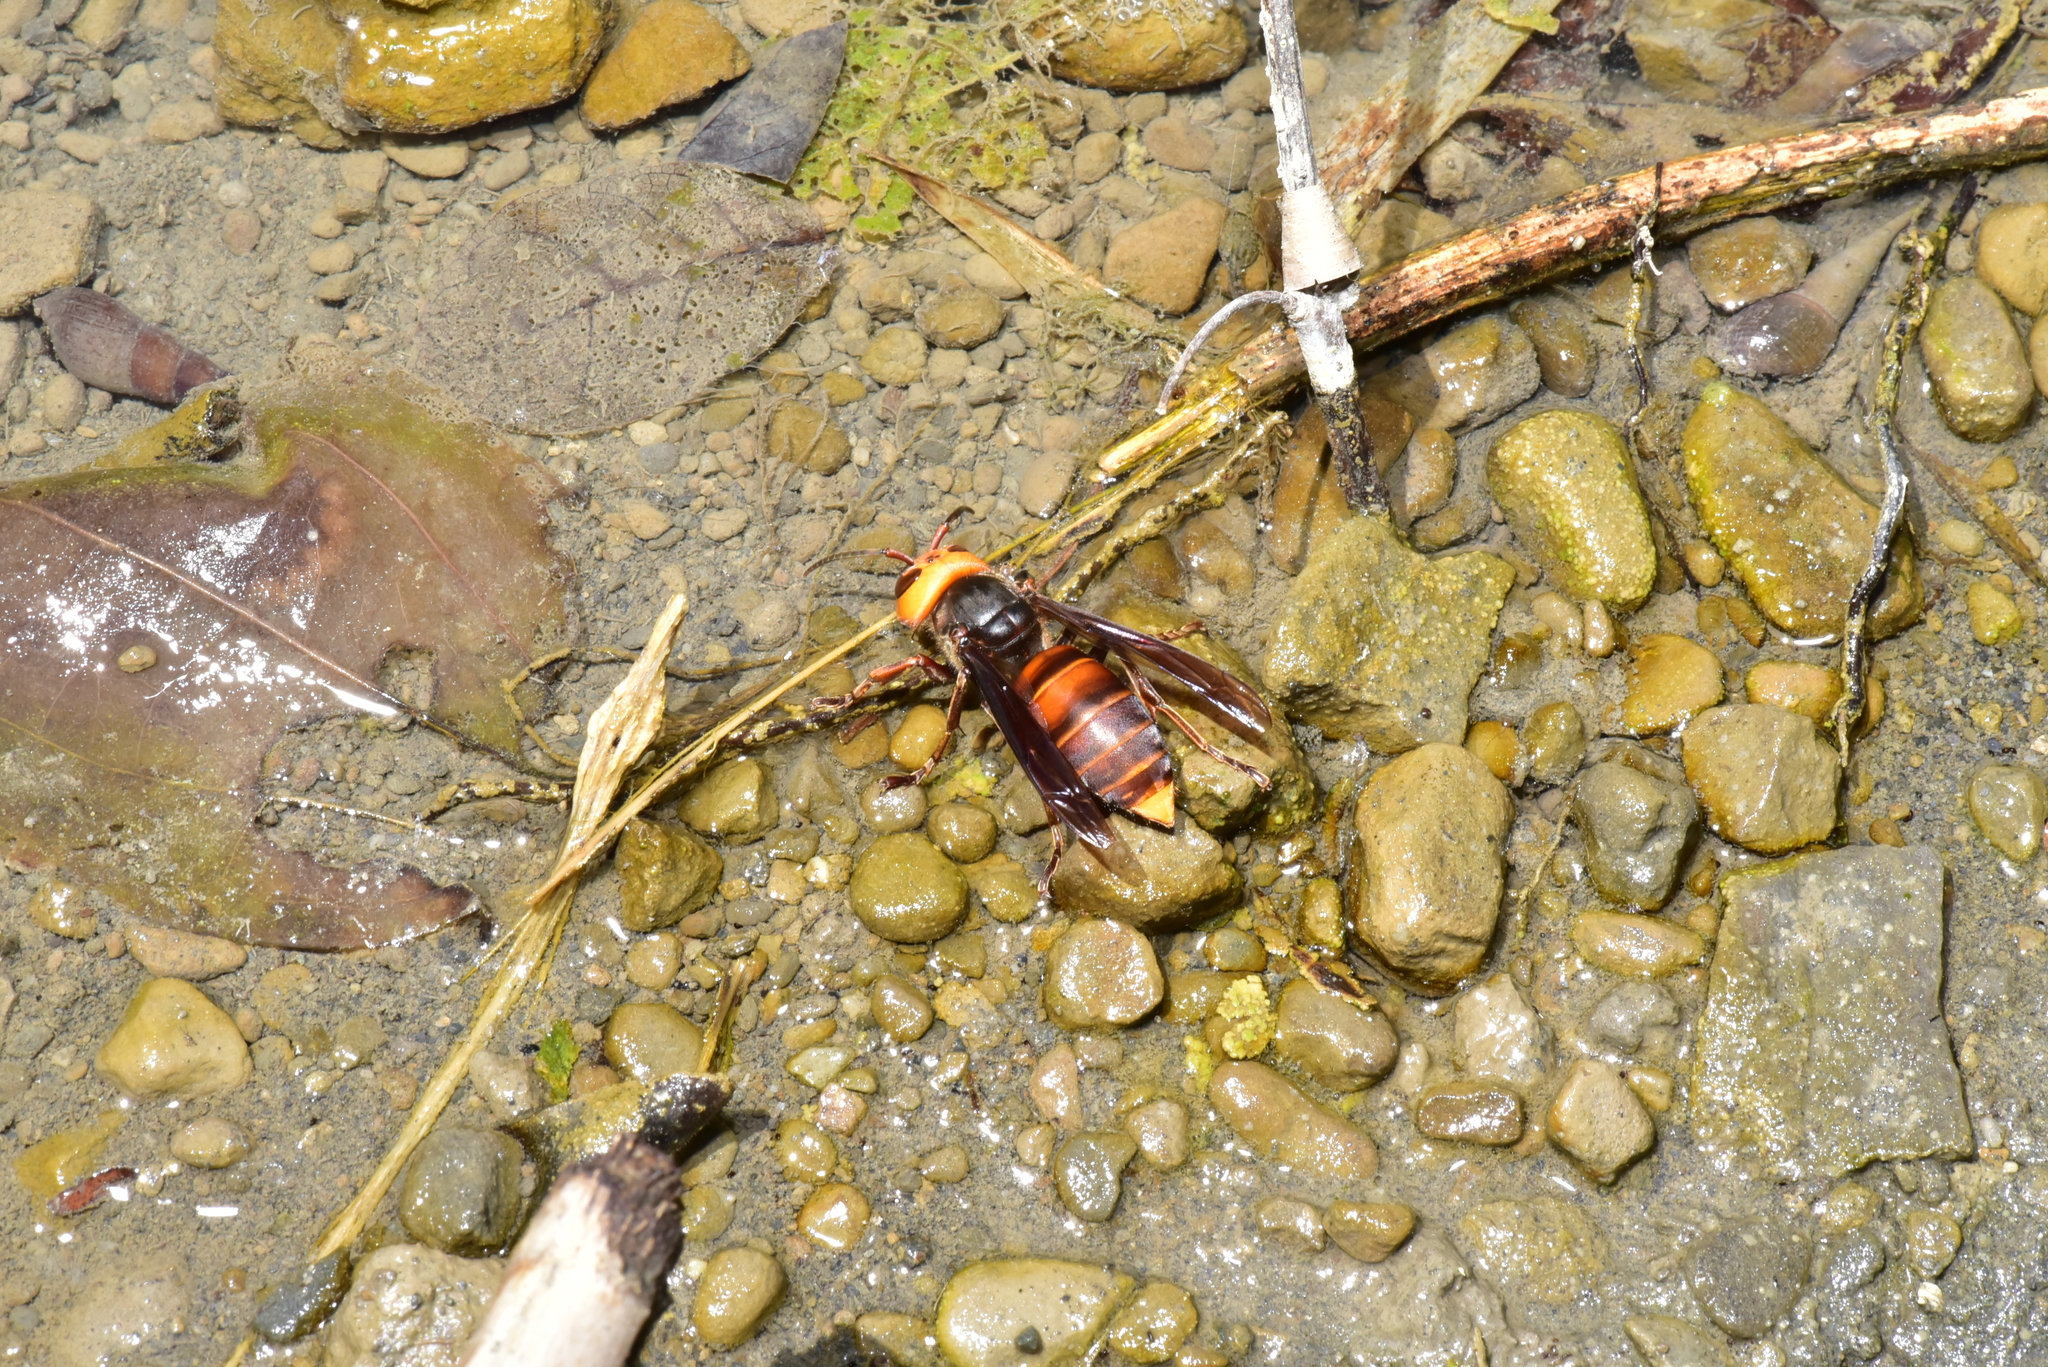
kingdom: Animalia
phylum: Arthropoda
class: Insecta
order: Hymenoptera
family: Vespidae
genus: Vespa
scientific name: Vespa mandarinia
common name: Asian giant hornet
